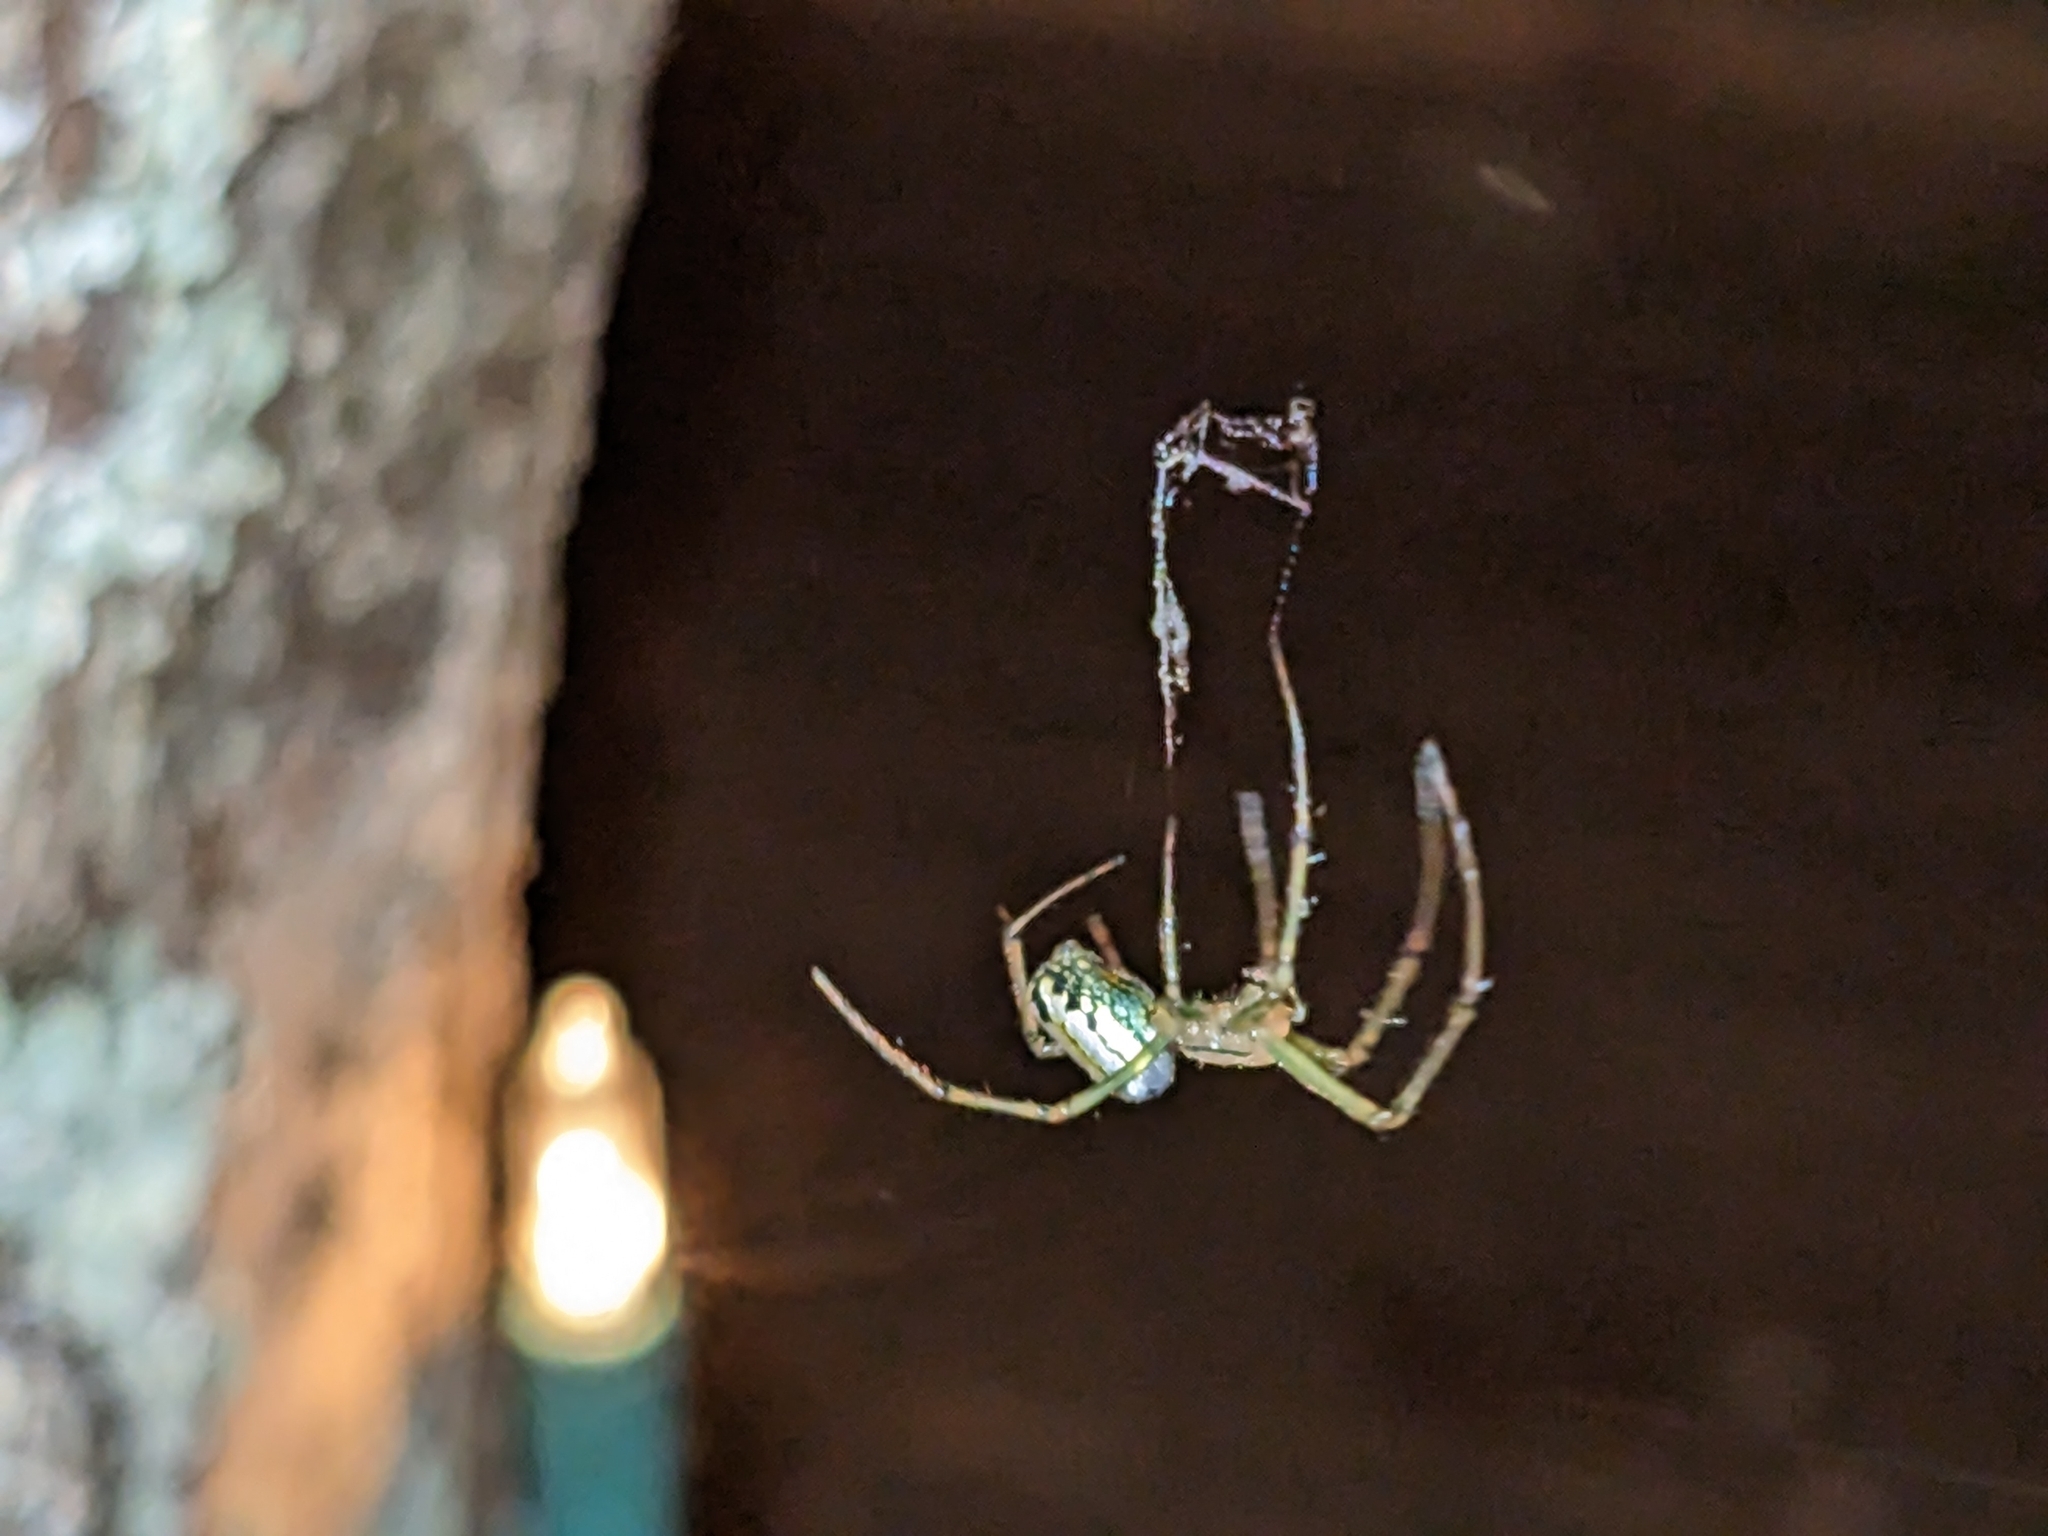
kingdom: Animalia
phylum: Arthropoda
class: Arachnida
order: Araneae
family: Tetragnathidae
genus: Leucauge
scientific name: Leucauge venusta
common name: Longjawed orb weavers
